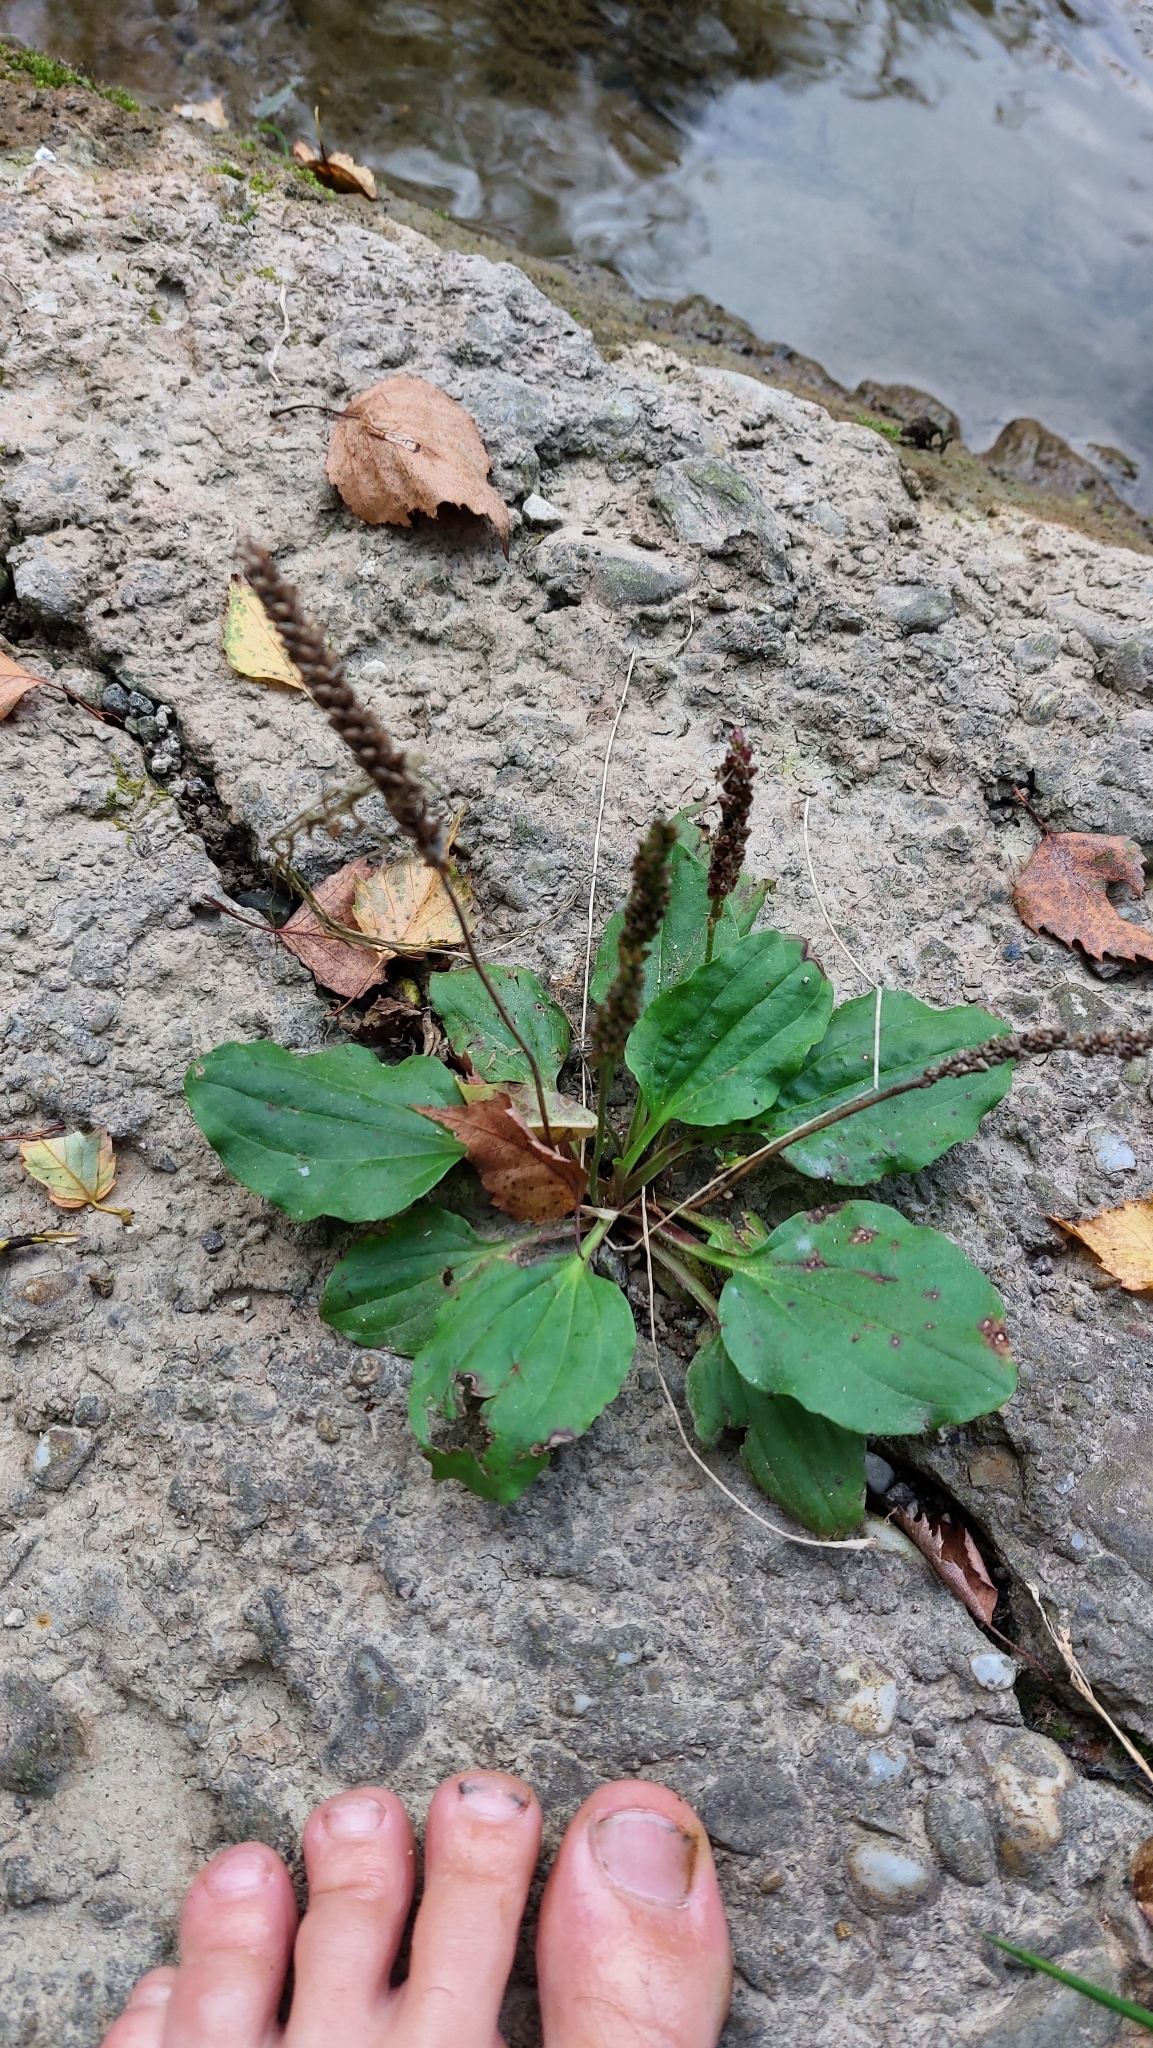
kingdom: Plantae
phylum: Tracheophyta
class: Magnoliopsida
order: Lamiales
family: Plantaginaceae
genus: Plantago
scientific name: Plantago major
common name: Common plantain
